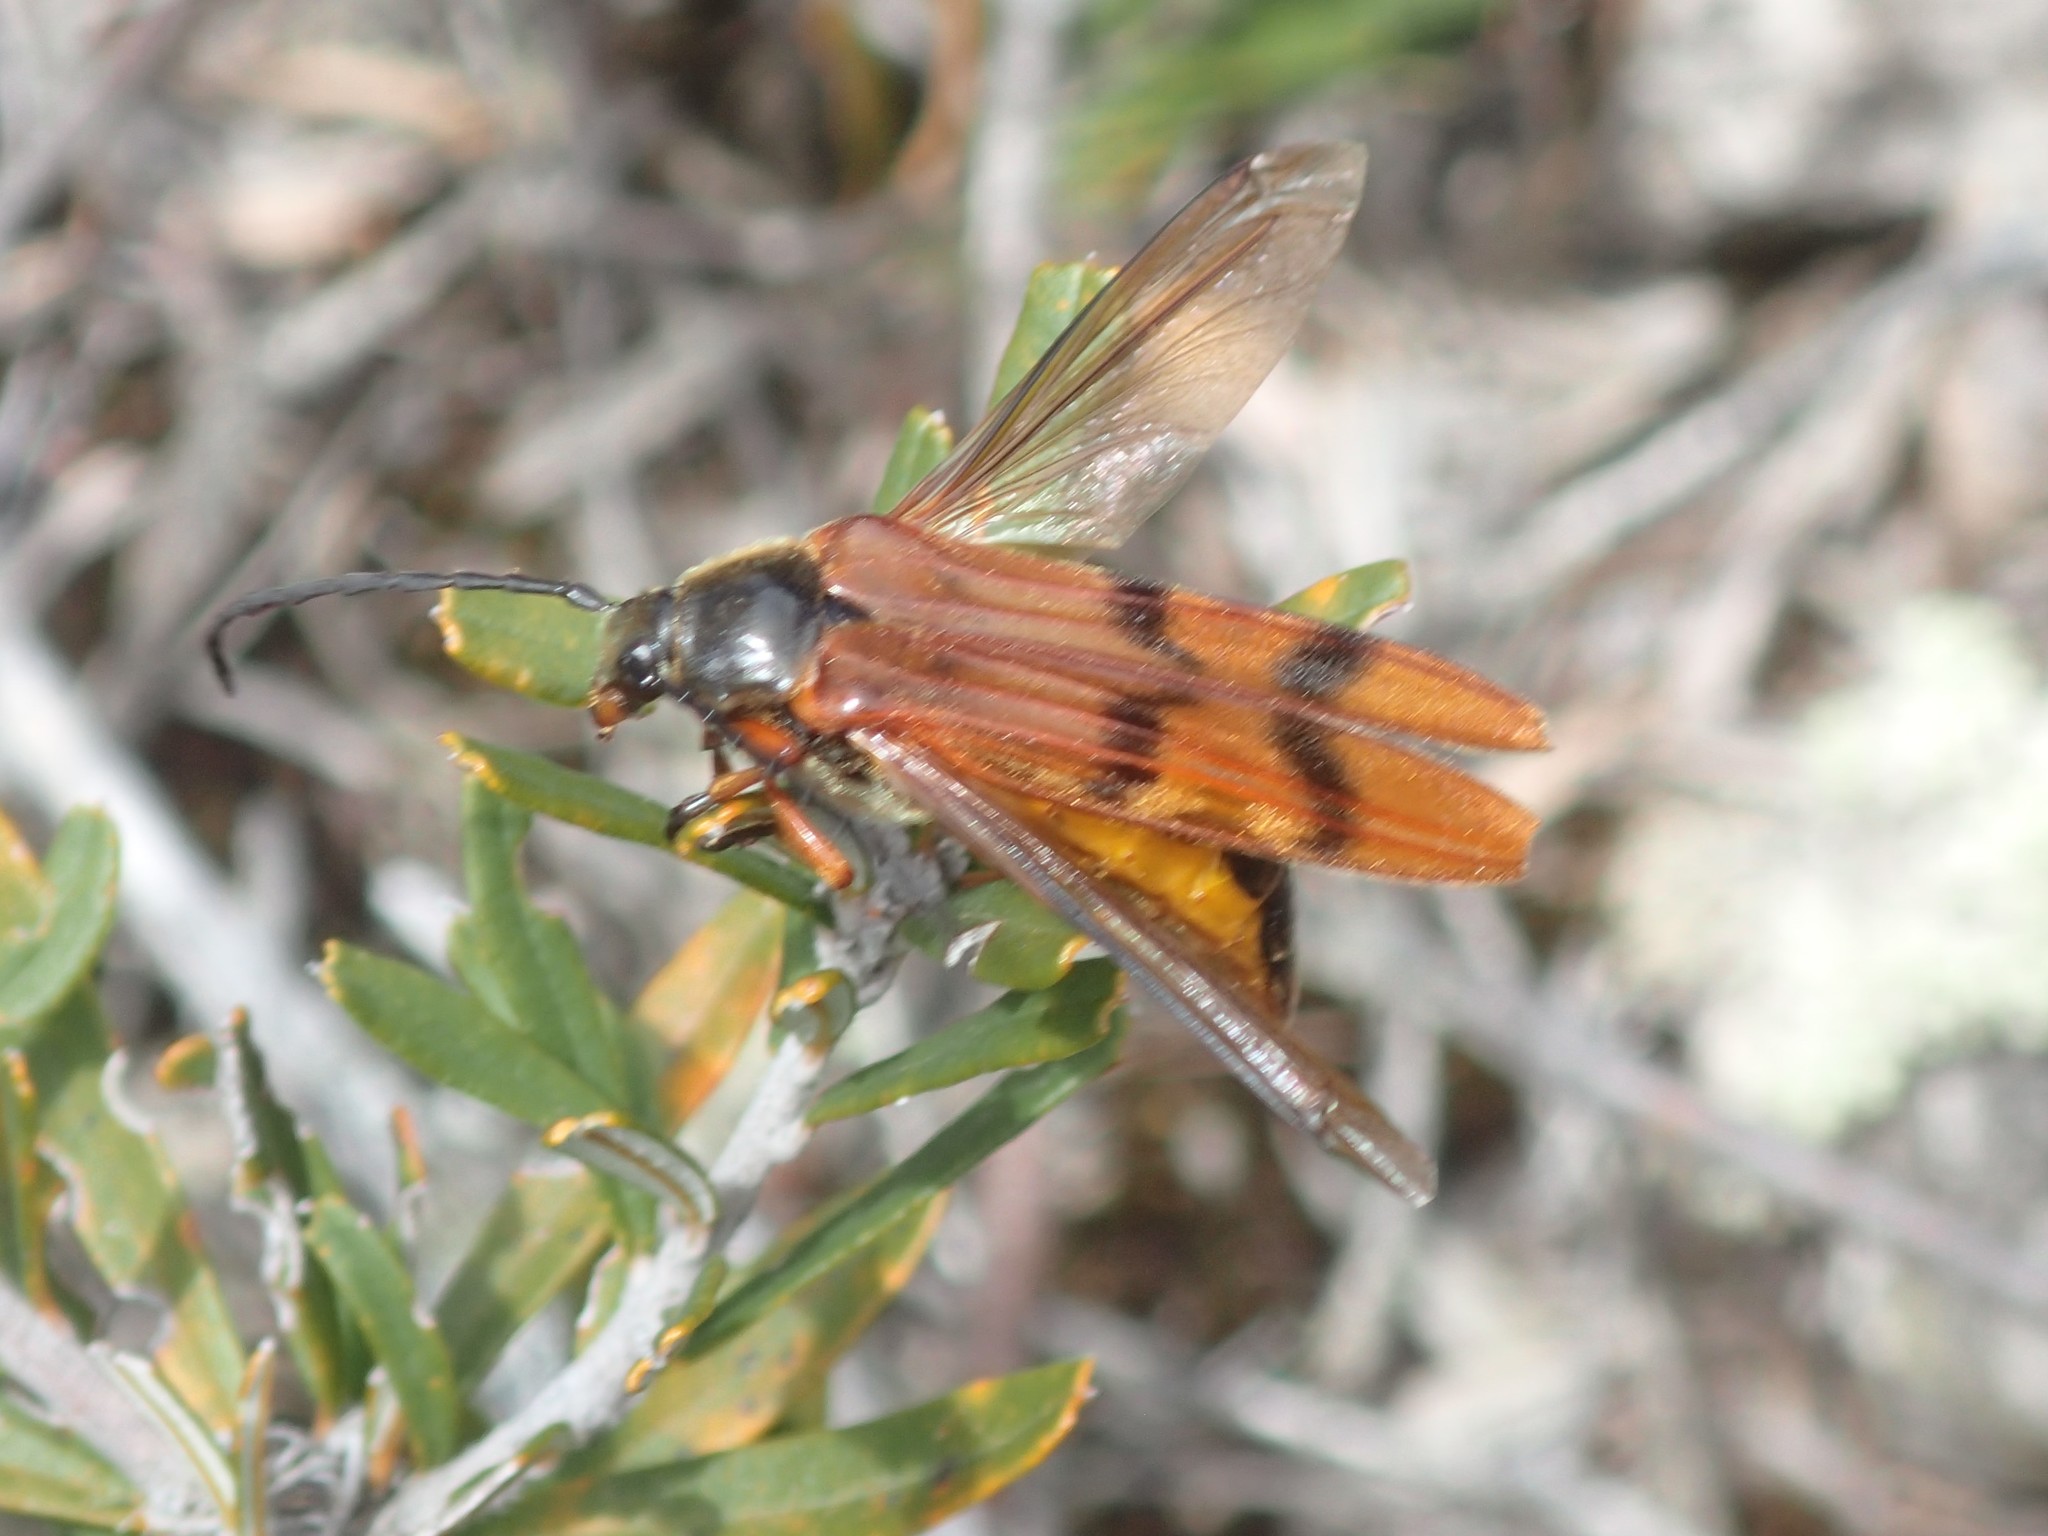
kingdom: Animalia
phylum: Arthropoda
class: Insecta
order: Coleoptera
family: Cerambycidae
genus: Tragocerus
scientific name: Tragocerus spencii
